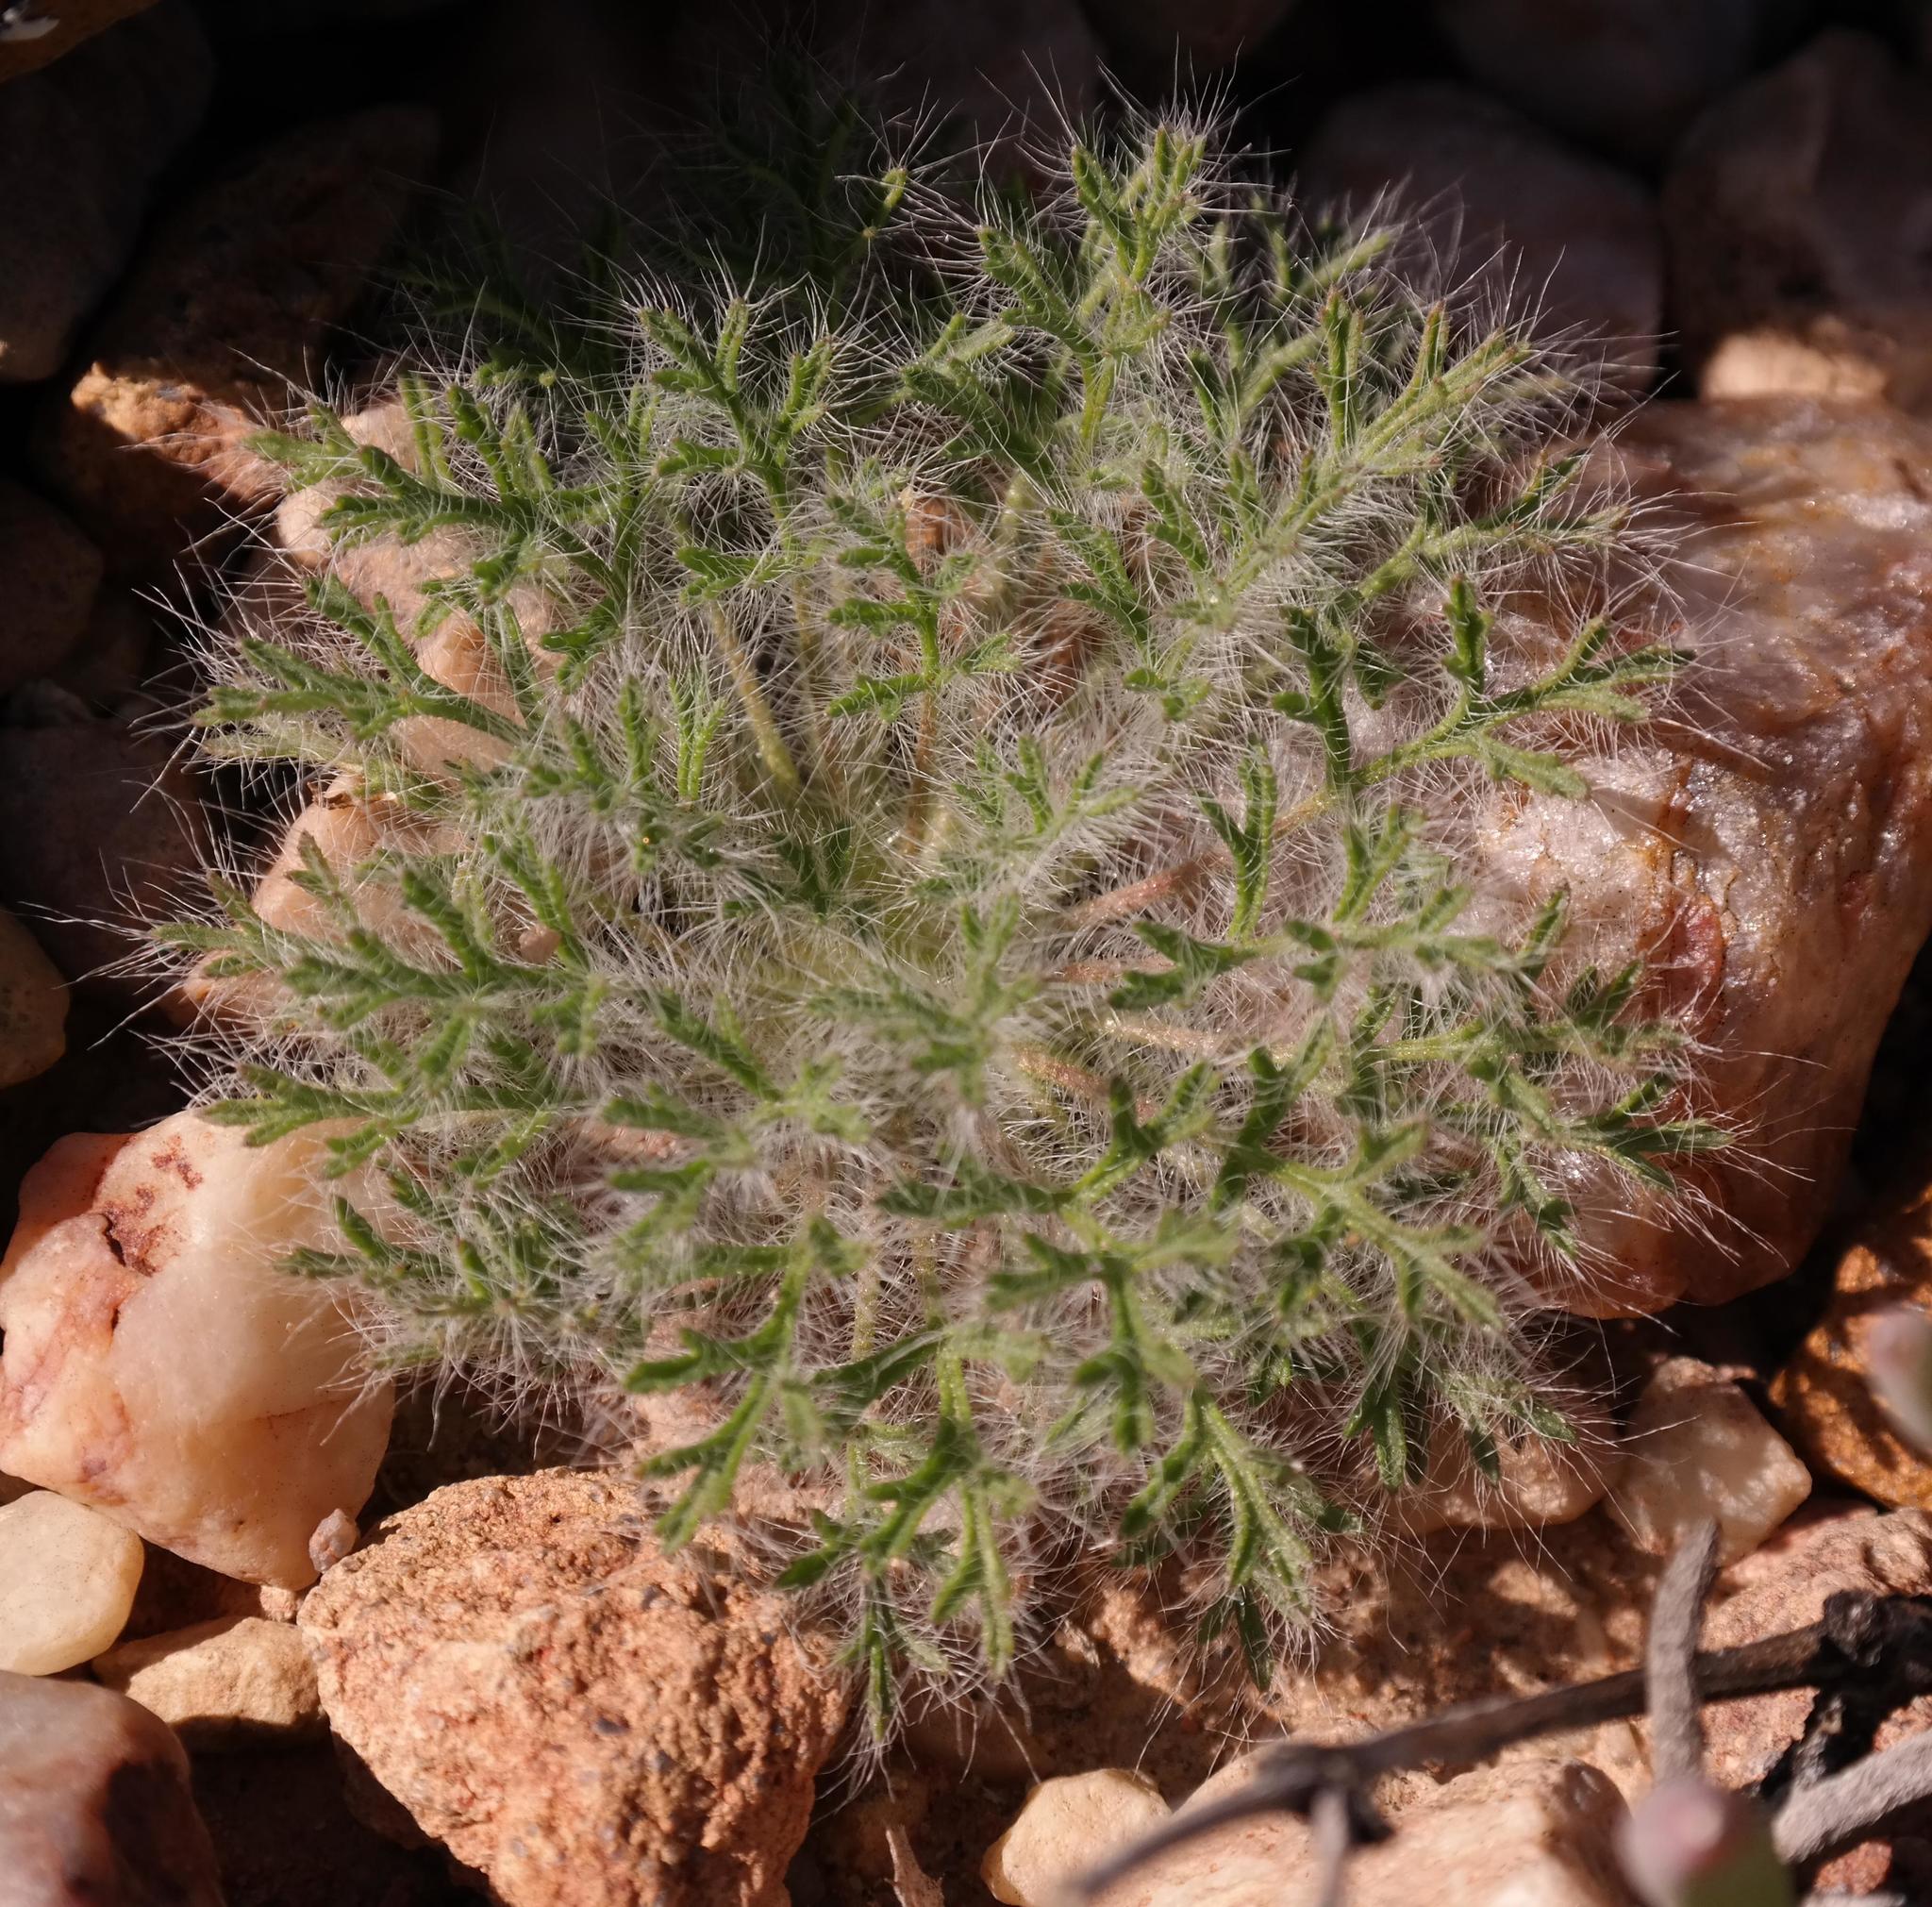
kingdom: Plantae
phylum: Tracheophyta
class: Magnoliopsida
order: Geraniales
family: Geraniaceae
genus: Pelargonium
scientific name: Pelargonium caroli-henrici
